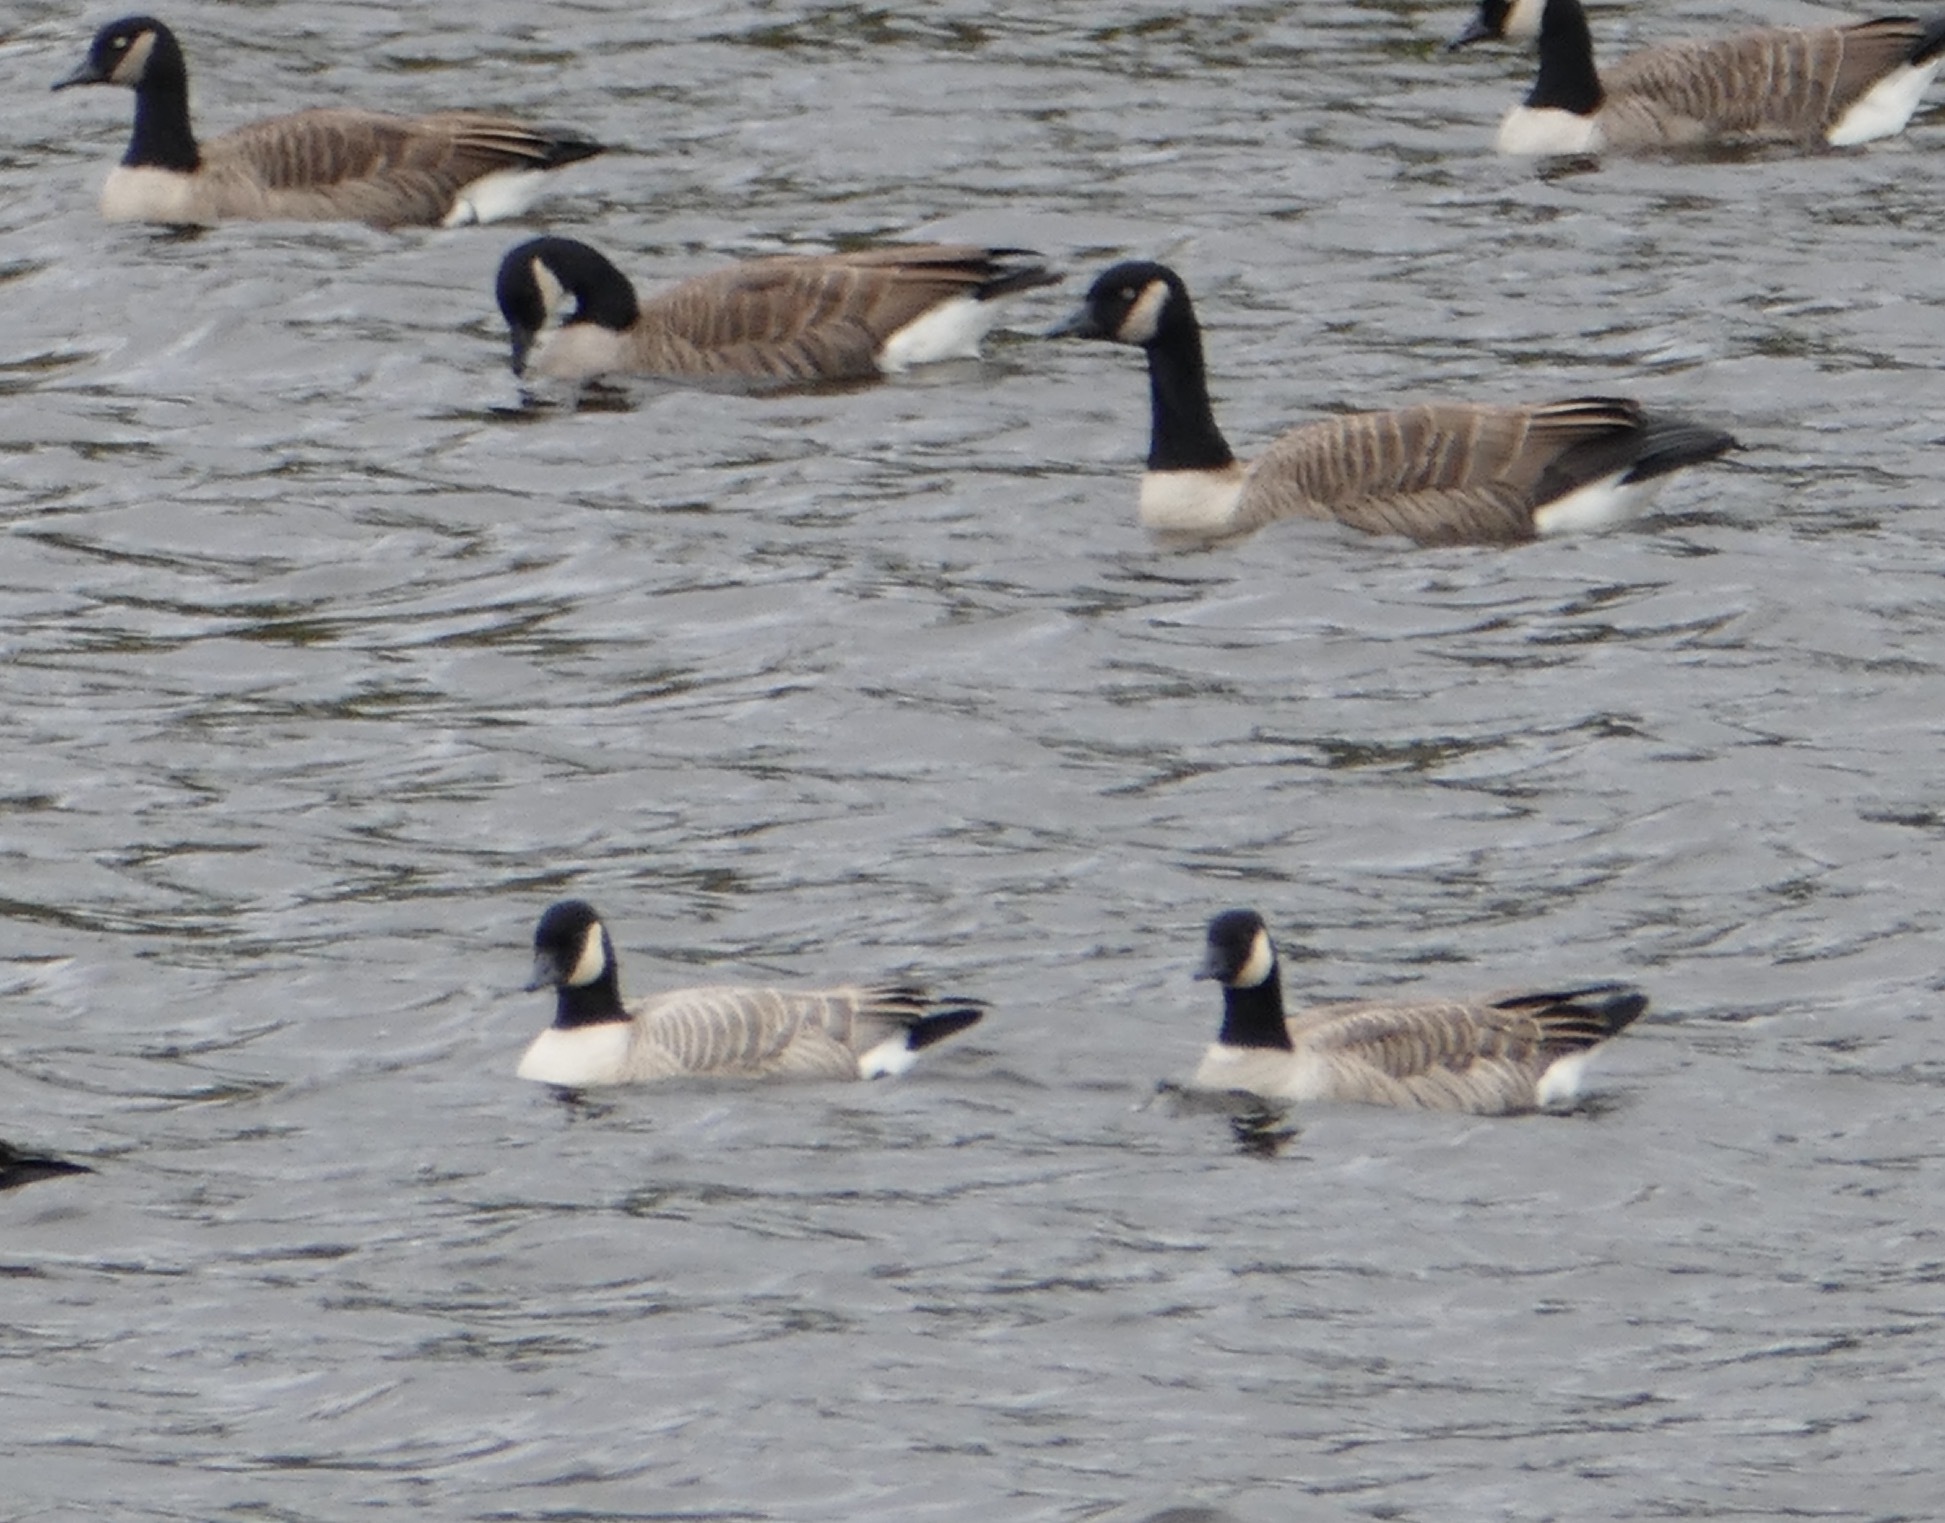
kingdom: Animalia
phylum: Chordata
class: Aves
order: Anseriformes
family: Anatidae
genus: Branta
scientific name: Branta canadensis
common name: Canada goose
